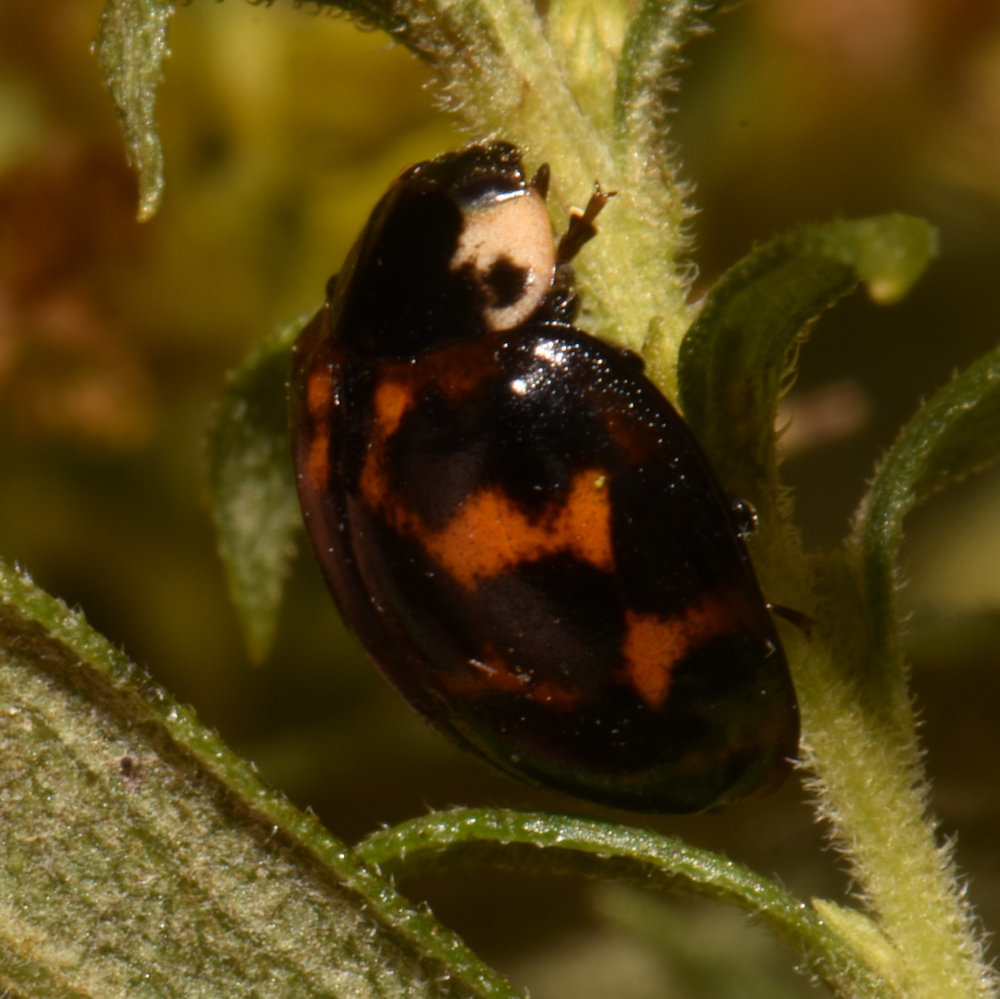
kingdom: Animalia
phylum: Arthropoda
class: Insecta
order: Coleoptera
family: Coccinellidae
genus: Harmonia
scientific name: Harmonia axyridis
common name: Harlequin ladybird
